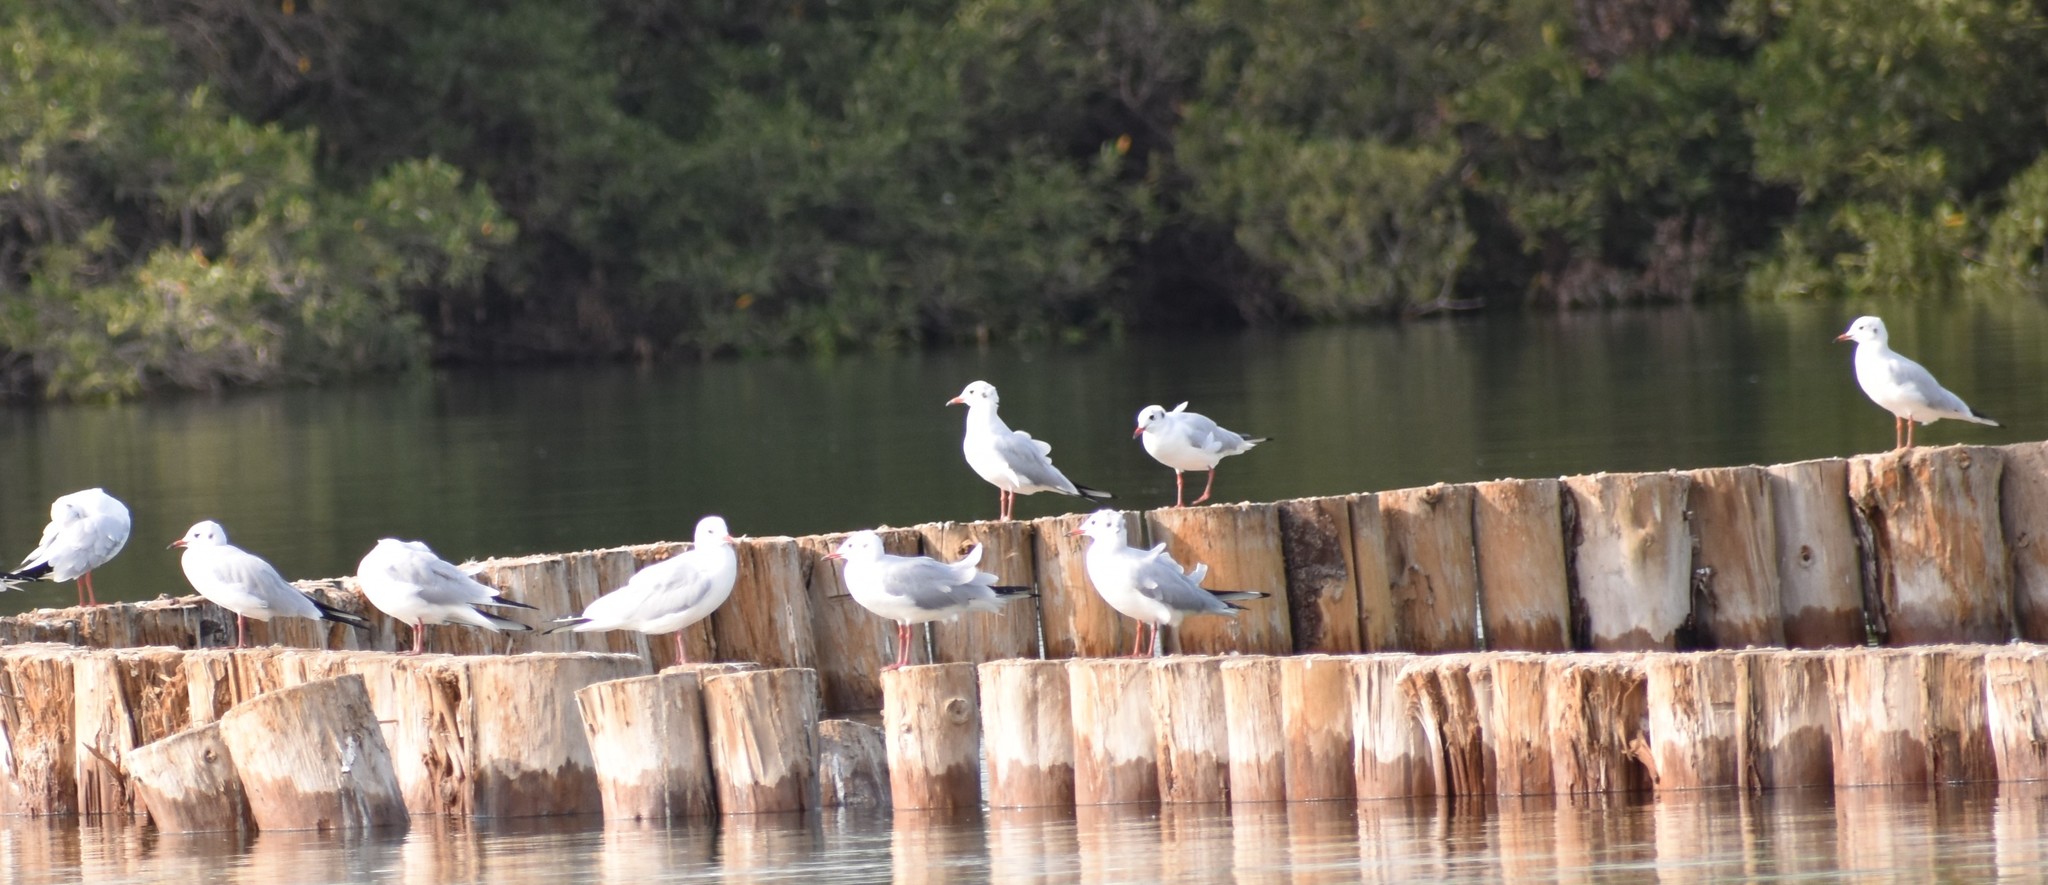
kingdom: Animalia
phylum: Chordata
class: Aves
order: Charadriiformes
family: Laridae
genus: Chroicocephalus
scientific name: Chroicocephalus ridibundus
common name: Black-headed gull
